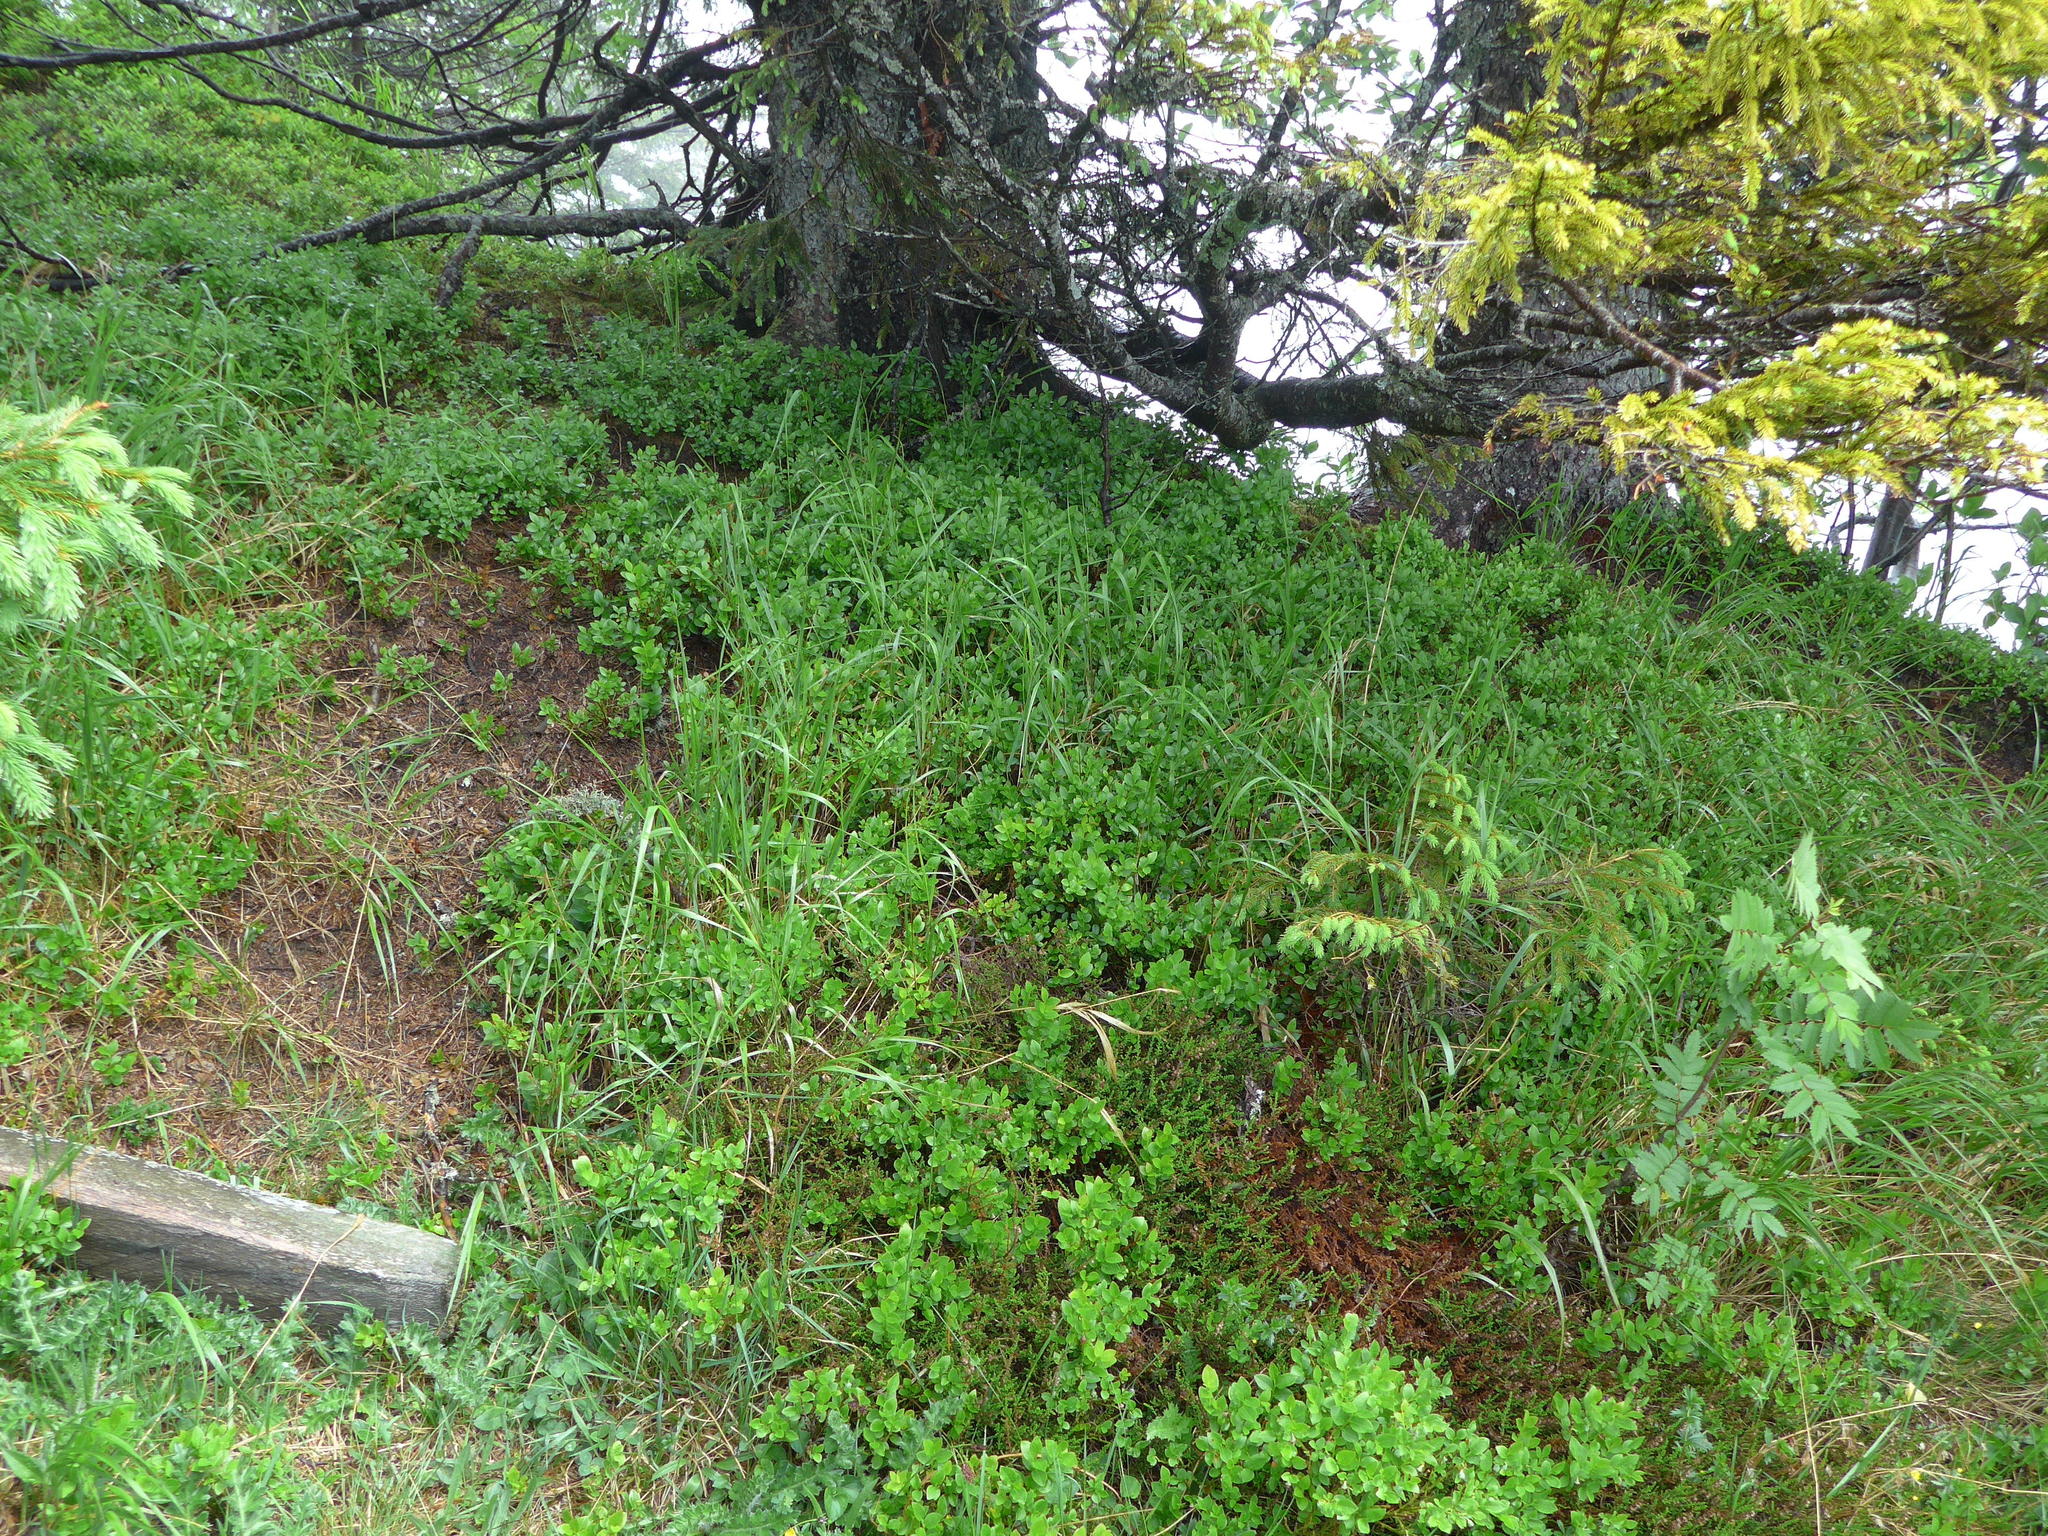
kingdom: Plantae
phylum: Tracheophyta
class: Magnoliopsida
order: Ericales
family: Ericaceae
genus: Vaccinium
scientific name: Vaccinium myrtillus
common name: Bilberry
